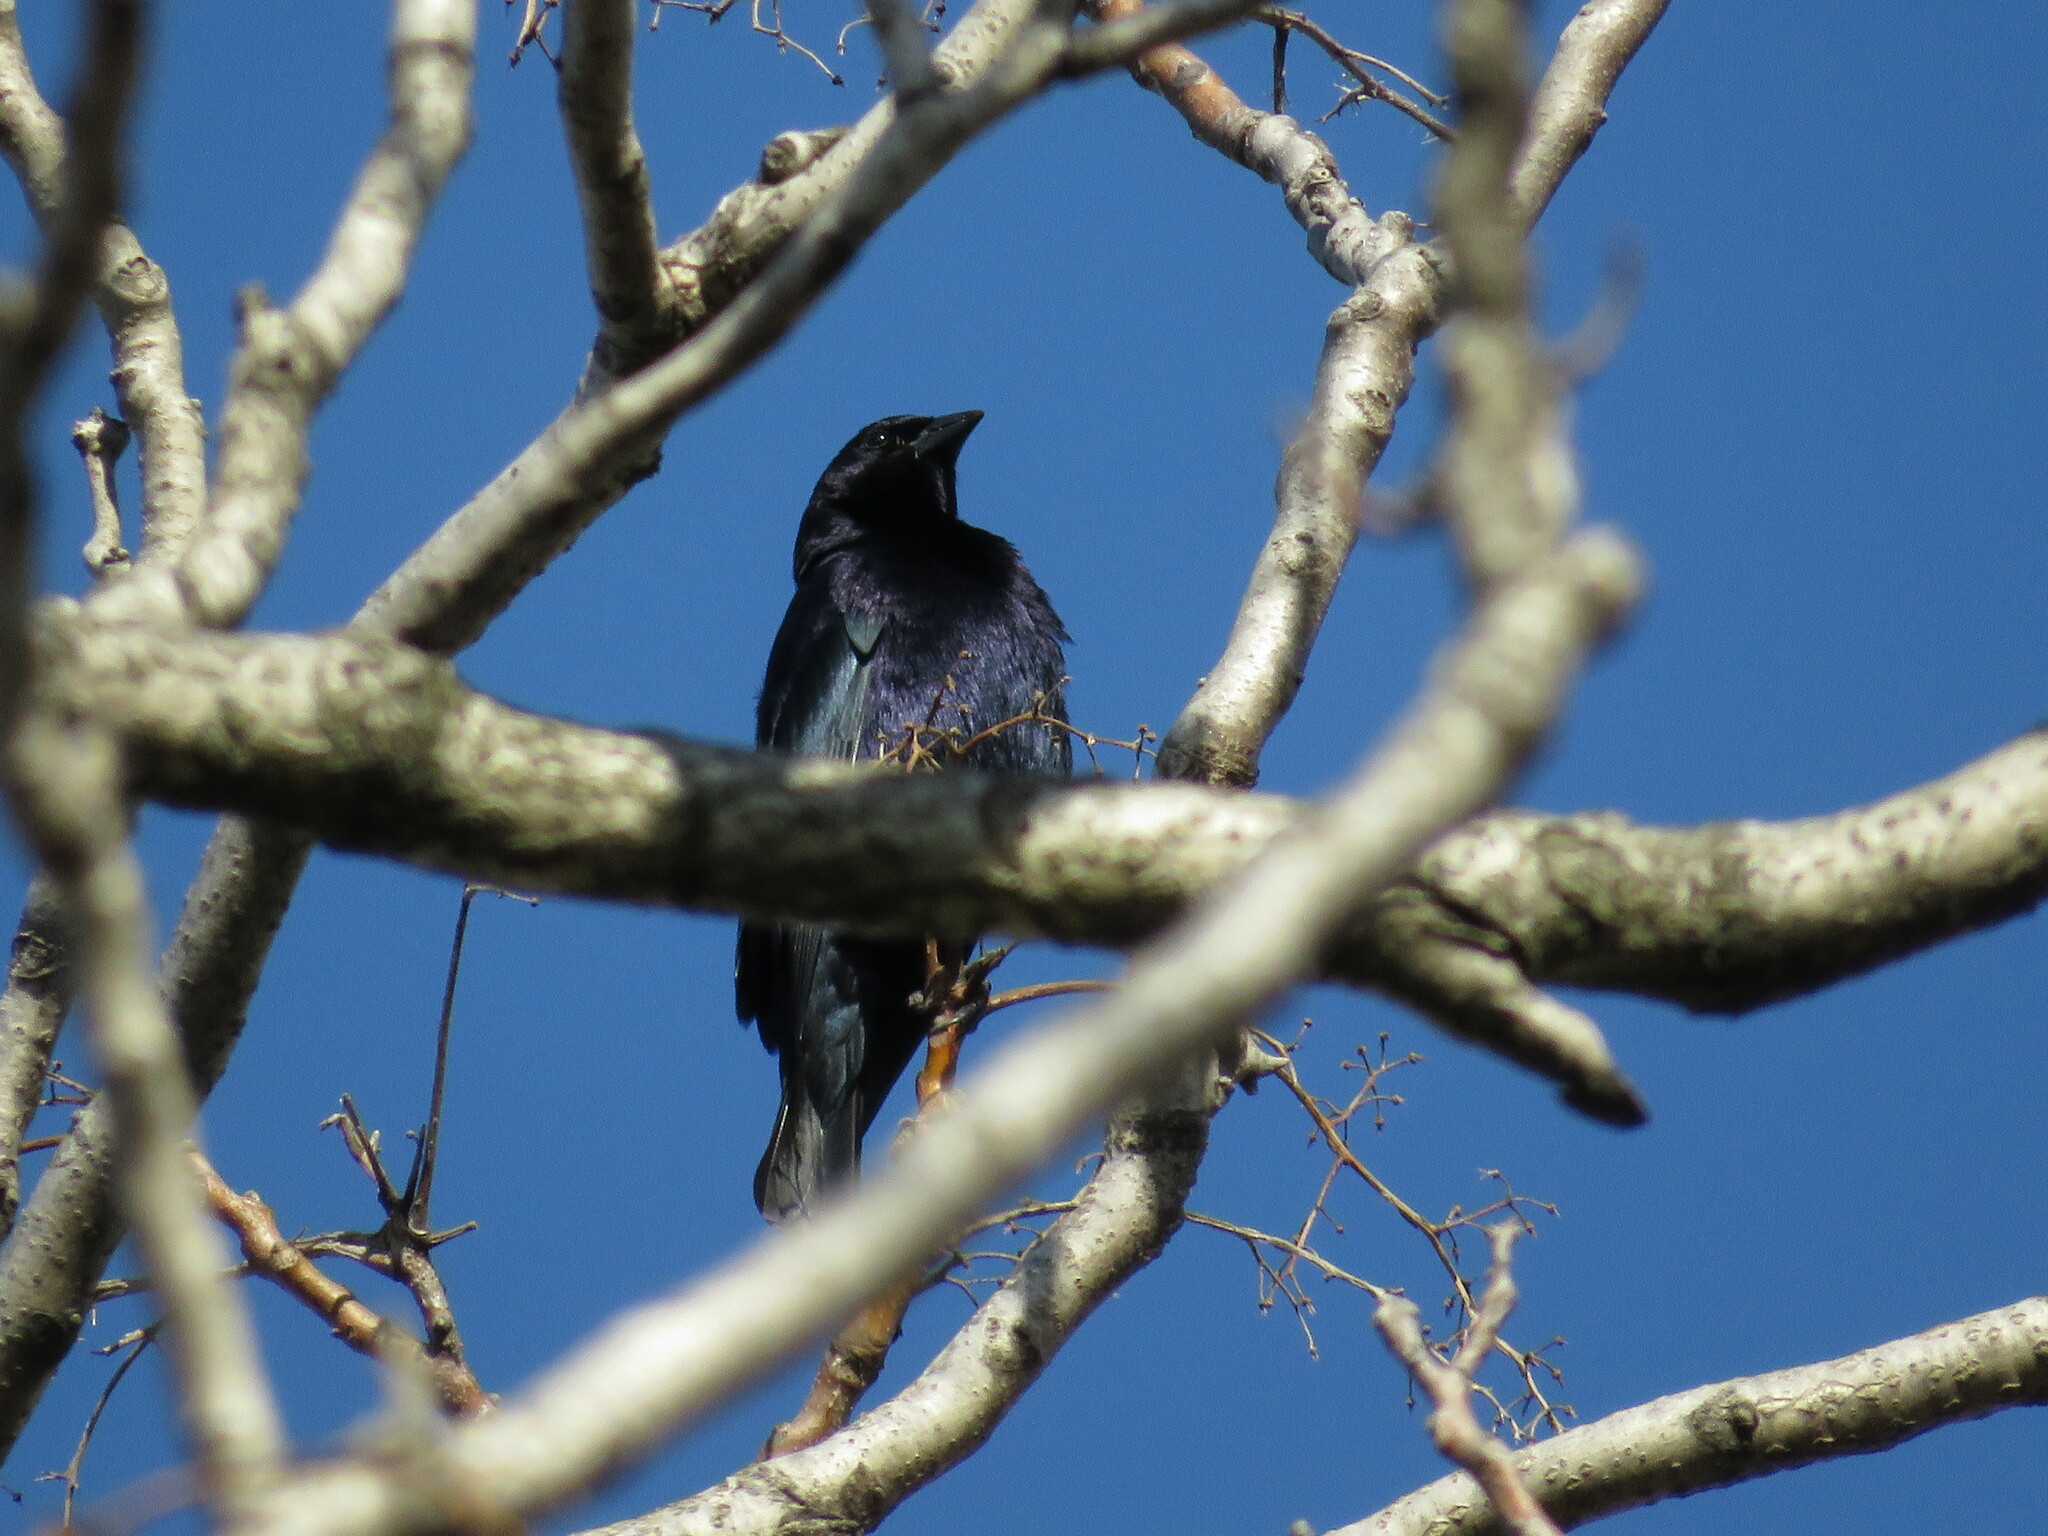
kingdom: Animalia
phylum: Chordata
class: Aves
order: Passeriformes
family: Icteridae
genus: Molothrus
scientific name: Molothrus bonariensis
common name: Shiny cowbird
